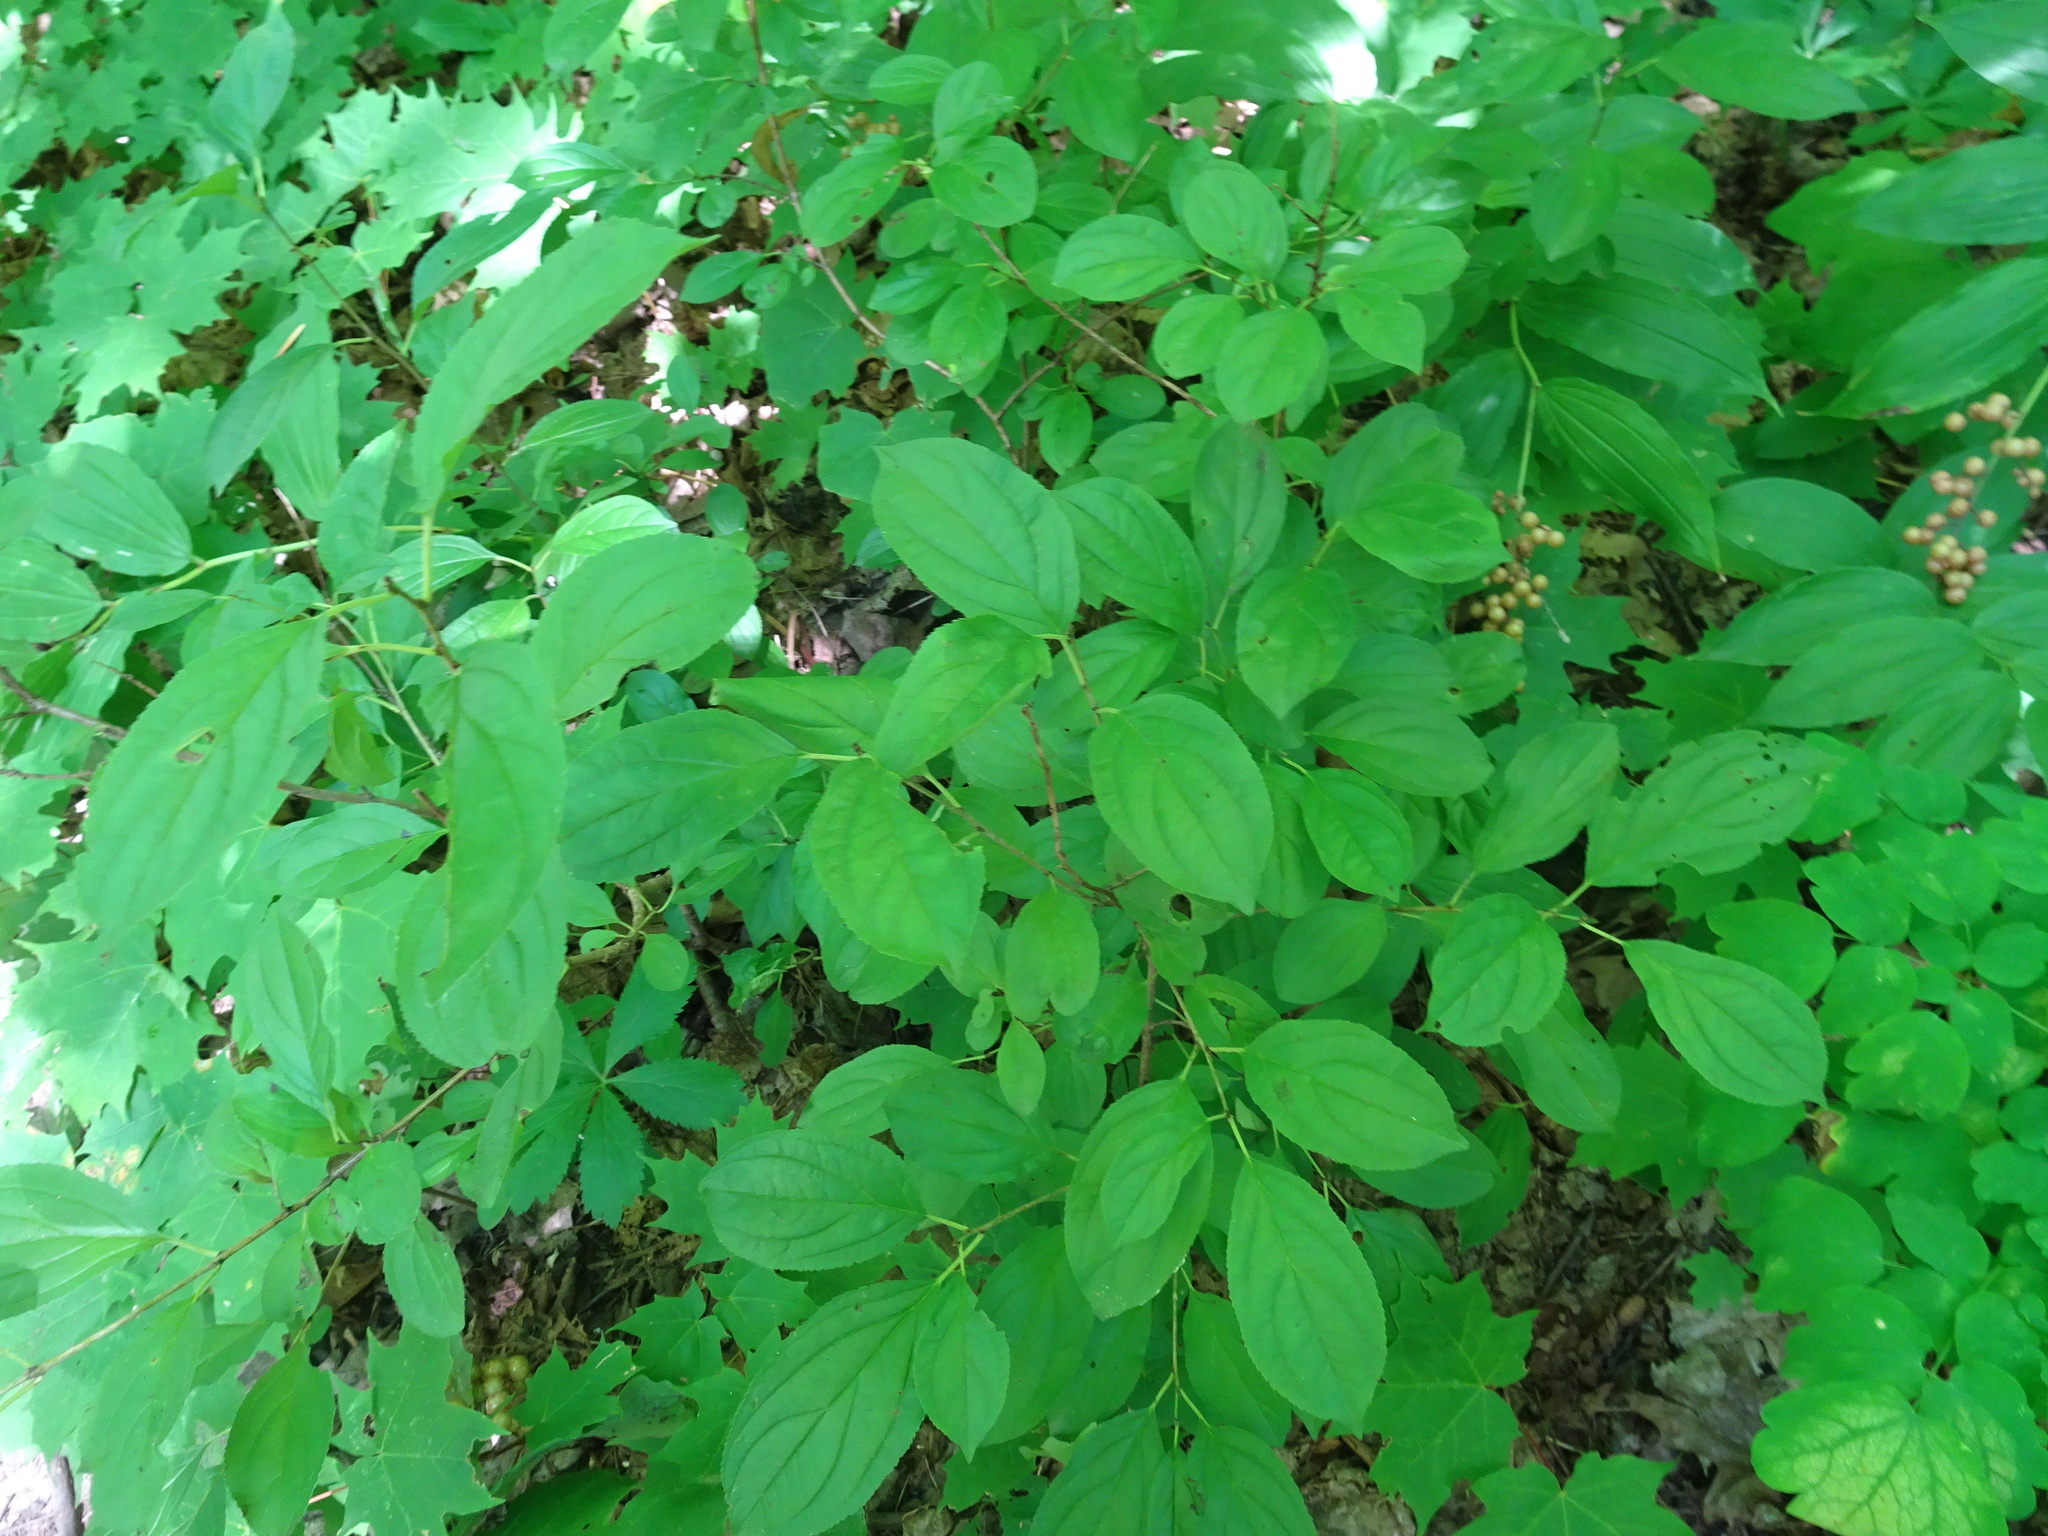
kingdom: Plantae
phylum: Tracheophyta
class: Magnoliopsida
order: Rosales
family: Rhamnaceae
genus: Rhamnus
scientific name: Rhamnus cathartica
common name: Common buckthorn
